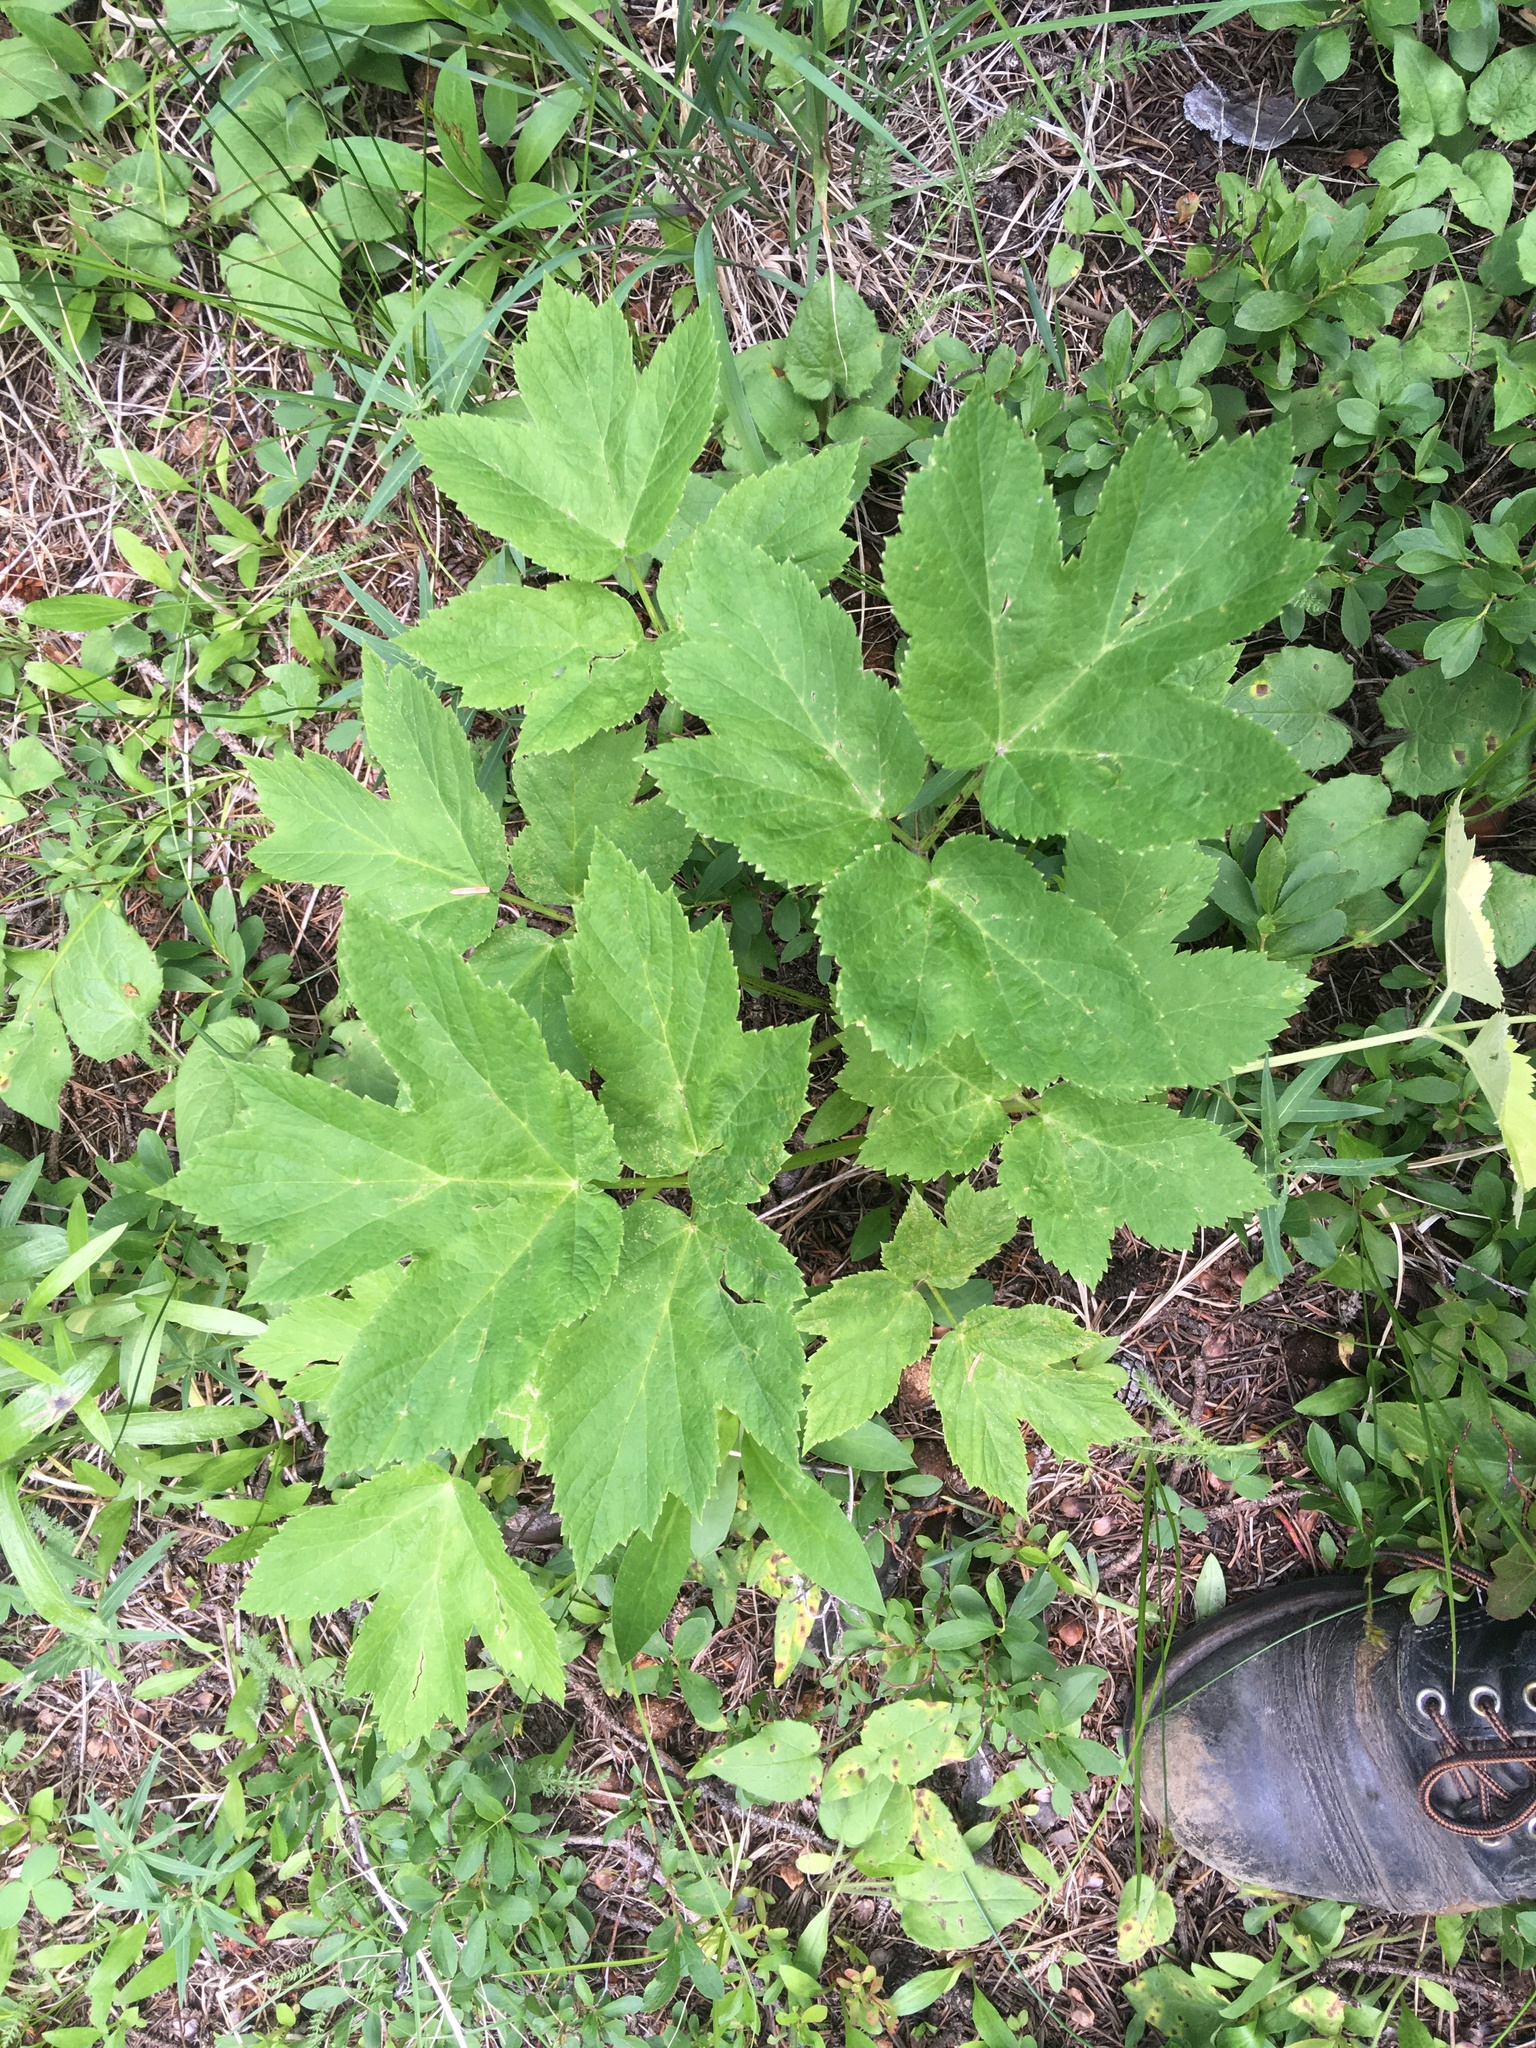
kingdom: Plantae
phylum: Tracheophyta
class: Magnoliopsida
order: Apiales
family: Apiaceae
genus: Heracleum
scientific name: Heracleum maximum
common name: American cow parsnip
